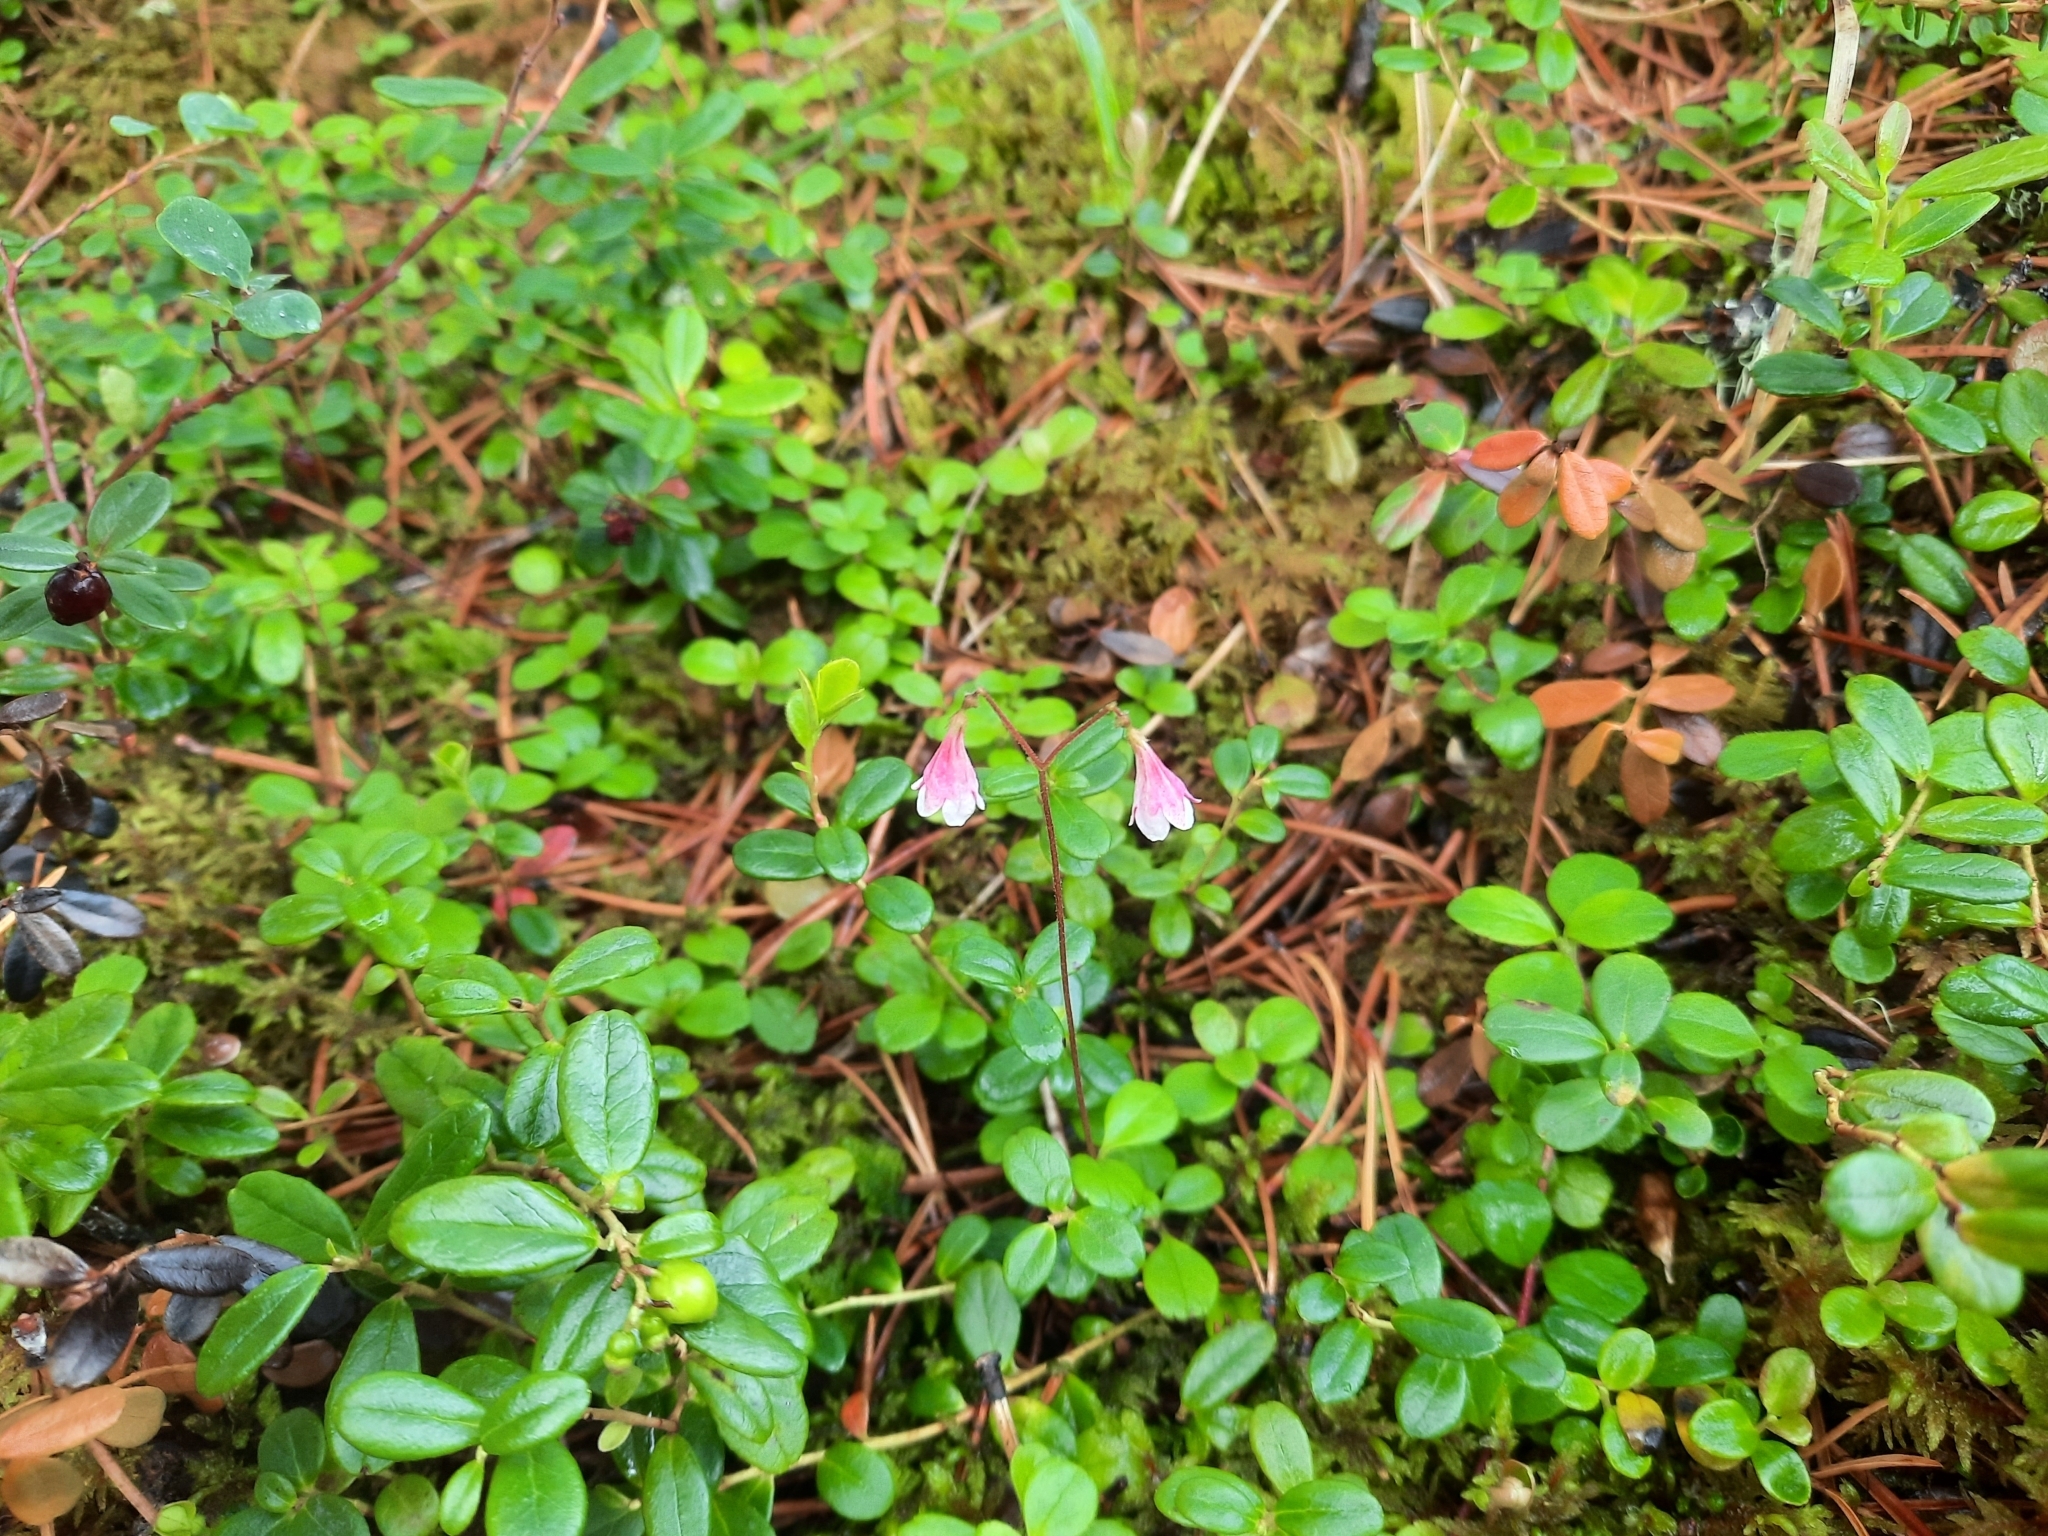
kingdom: Plantae
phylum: Tracheophyta
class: Magnoliopsida
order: Dipsacales
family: Caprifoliaceae
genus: Linnaea
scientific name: Linnaea borealis
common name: Twinflower
